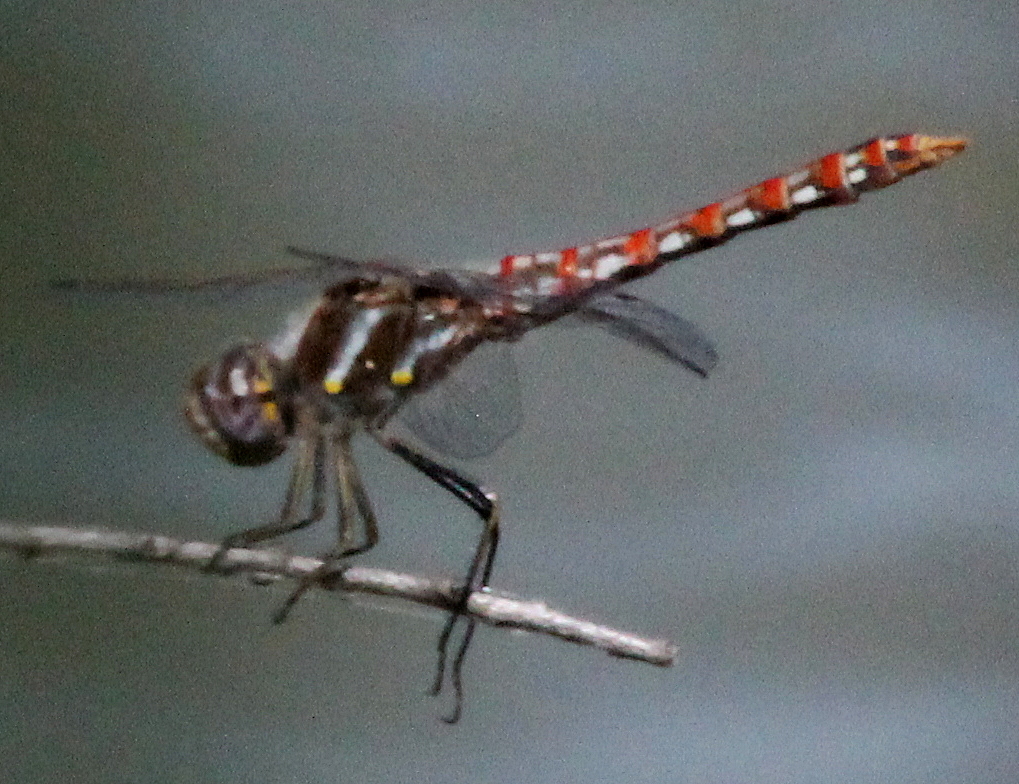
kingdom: Animalia
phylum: Arthropoda
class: Insecta
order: Odonata
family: Libellulidae
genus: Sympetrum
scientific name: Sympetrum corruptum
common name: Variegated meadowhawk
